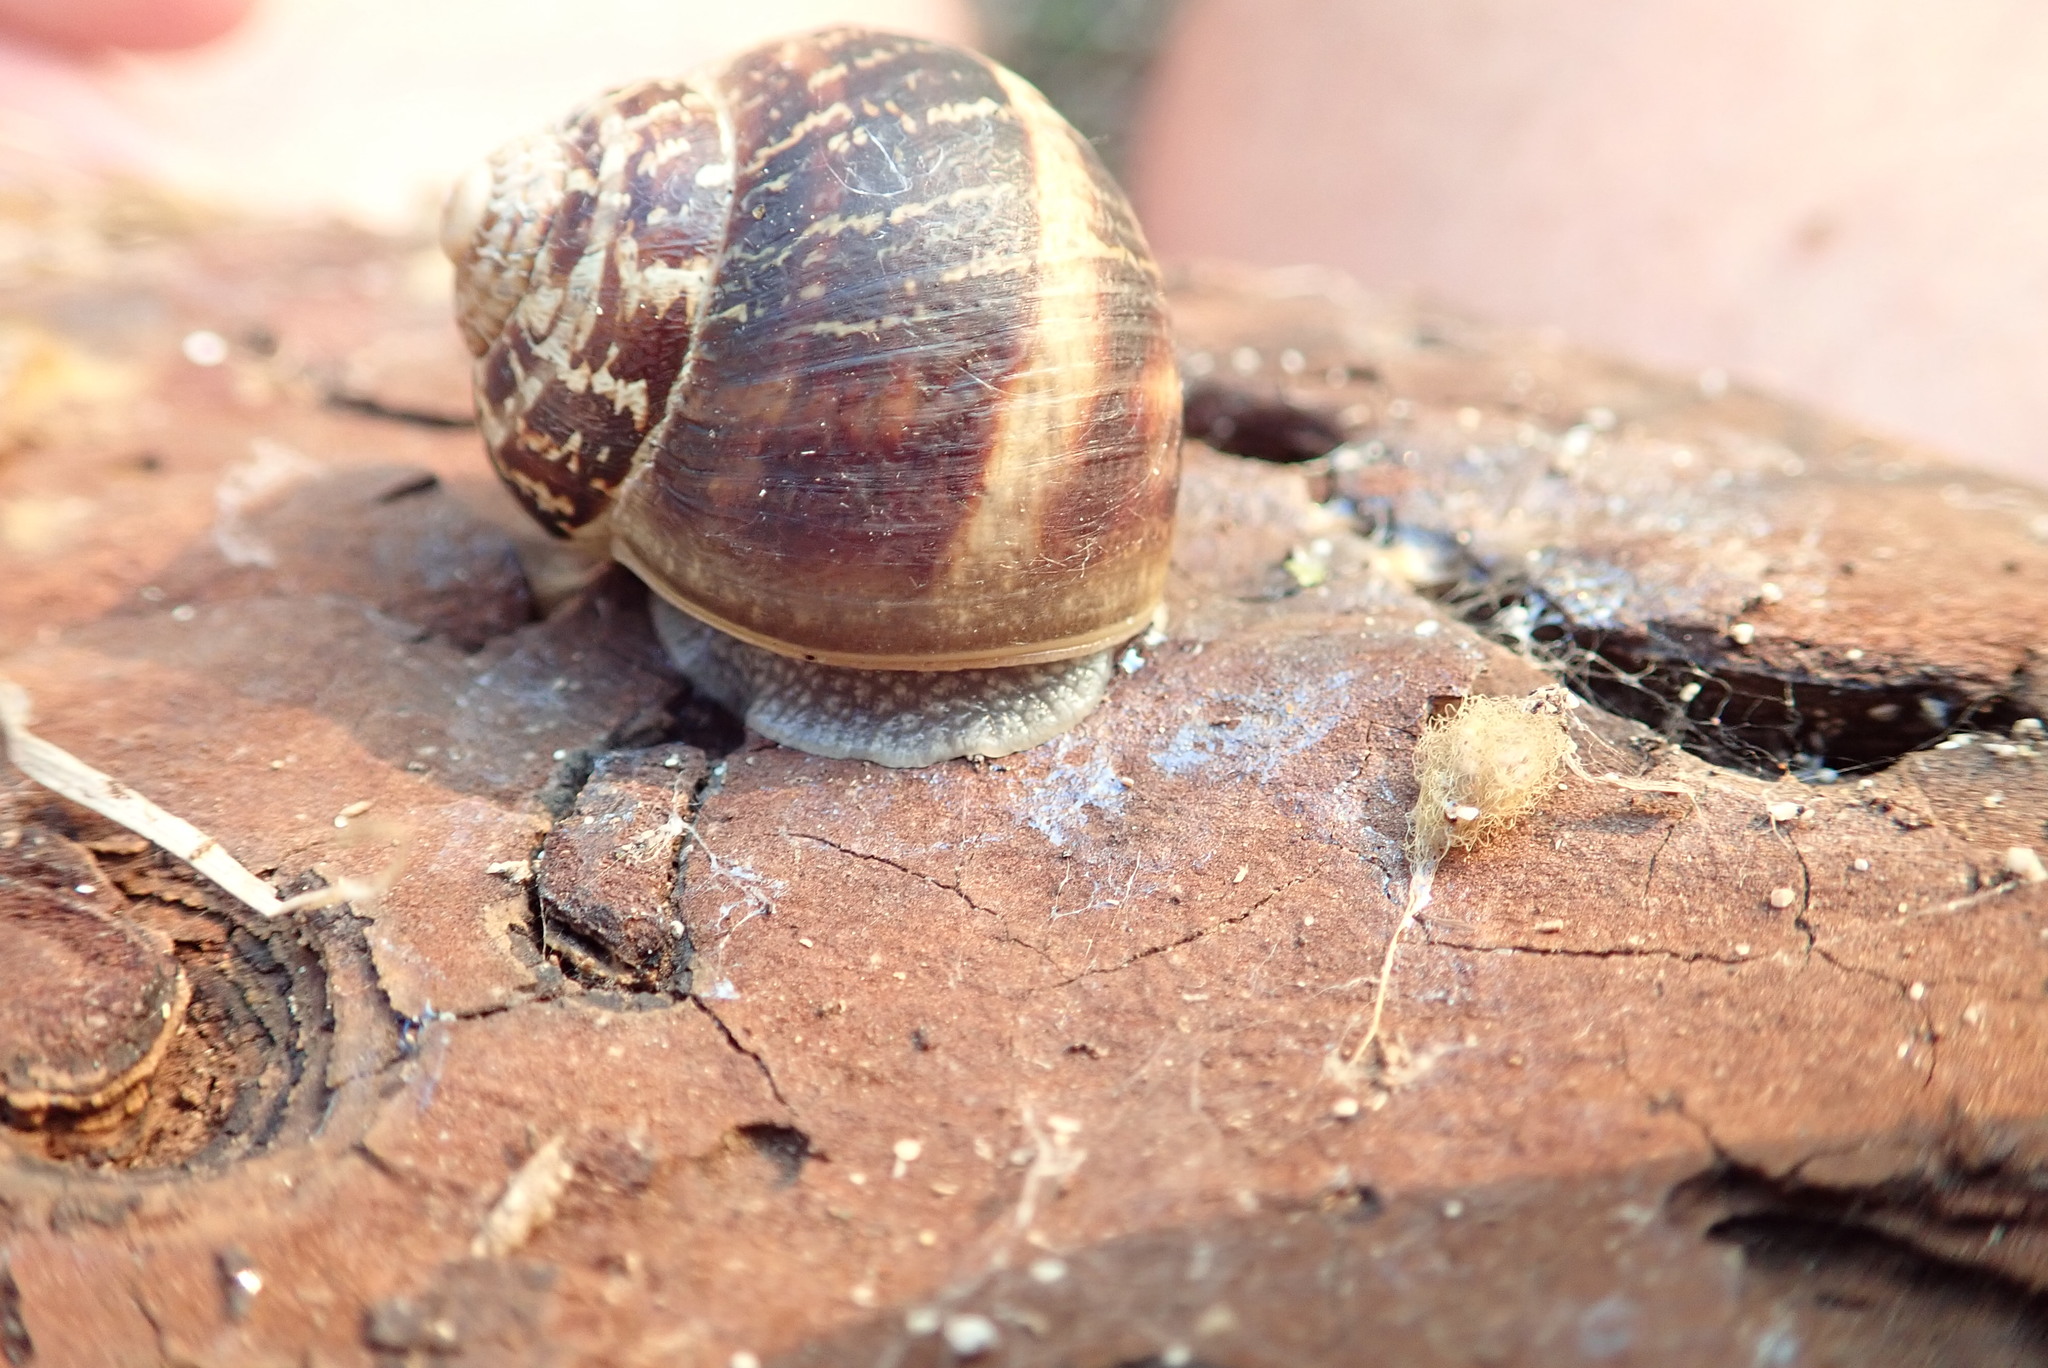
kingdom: Animalia
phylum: Mollusca
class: Gastropoda
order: Stylommatophora
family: Helicidae
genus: Cornu
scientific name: Cornu aspersum
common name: Brown garden snail
